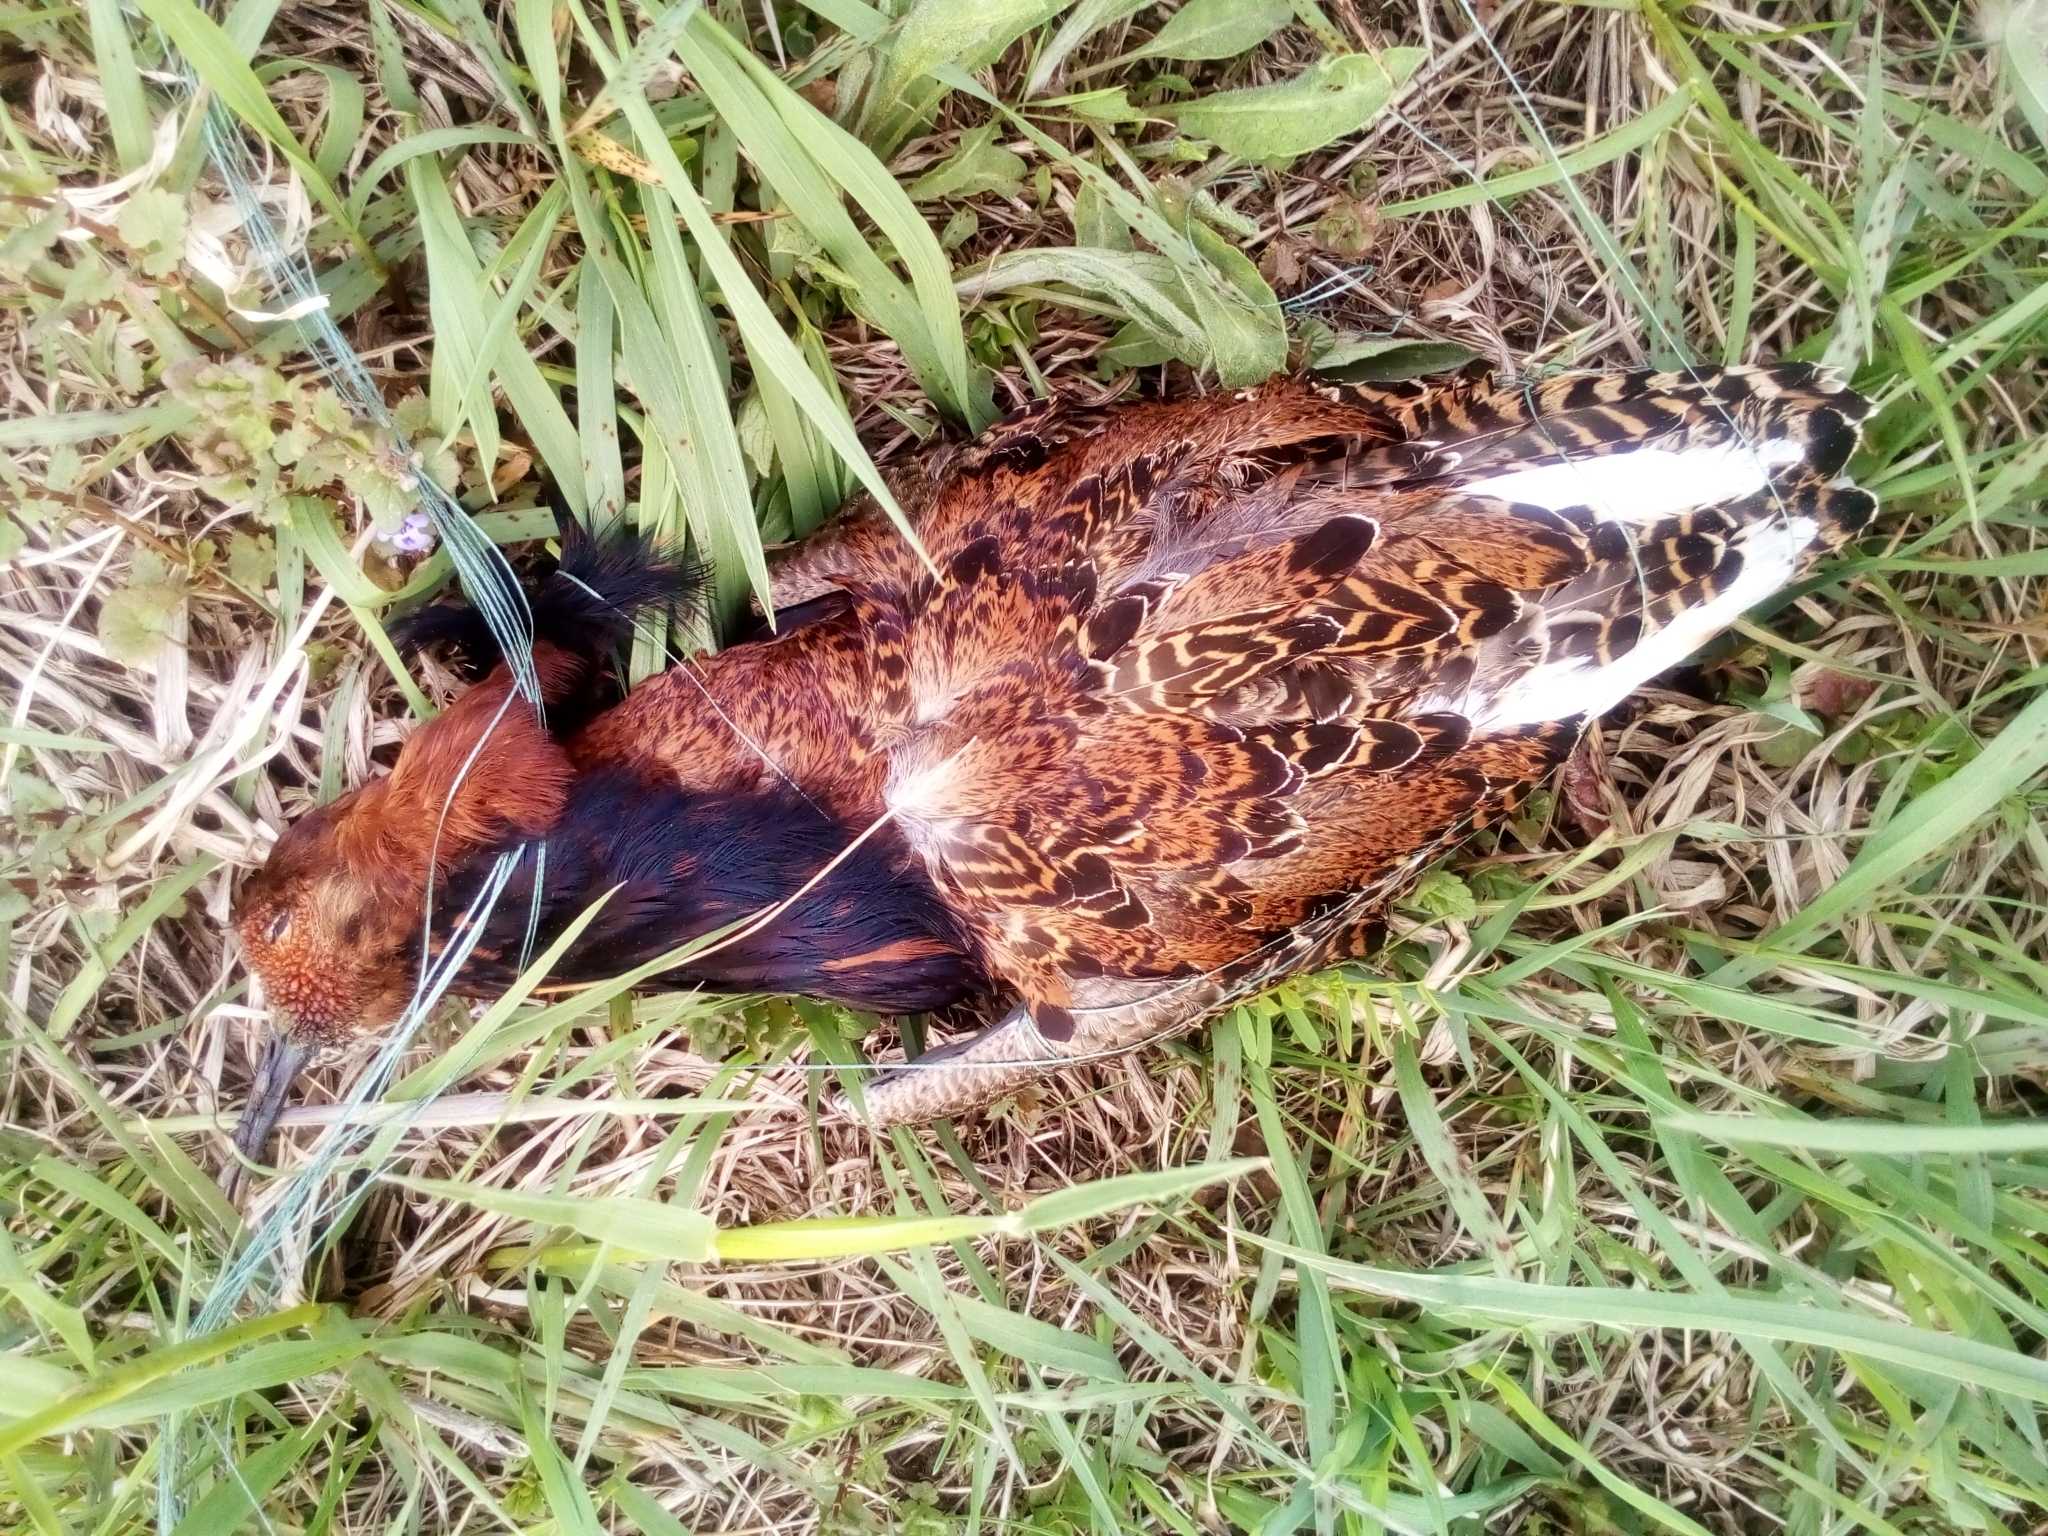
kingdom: Animalia
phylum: Chordata
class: Aves
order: Charadriiformes
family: Scolopacidae
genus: Calidris
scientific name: Calidris pugnax
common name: Ruff
